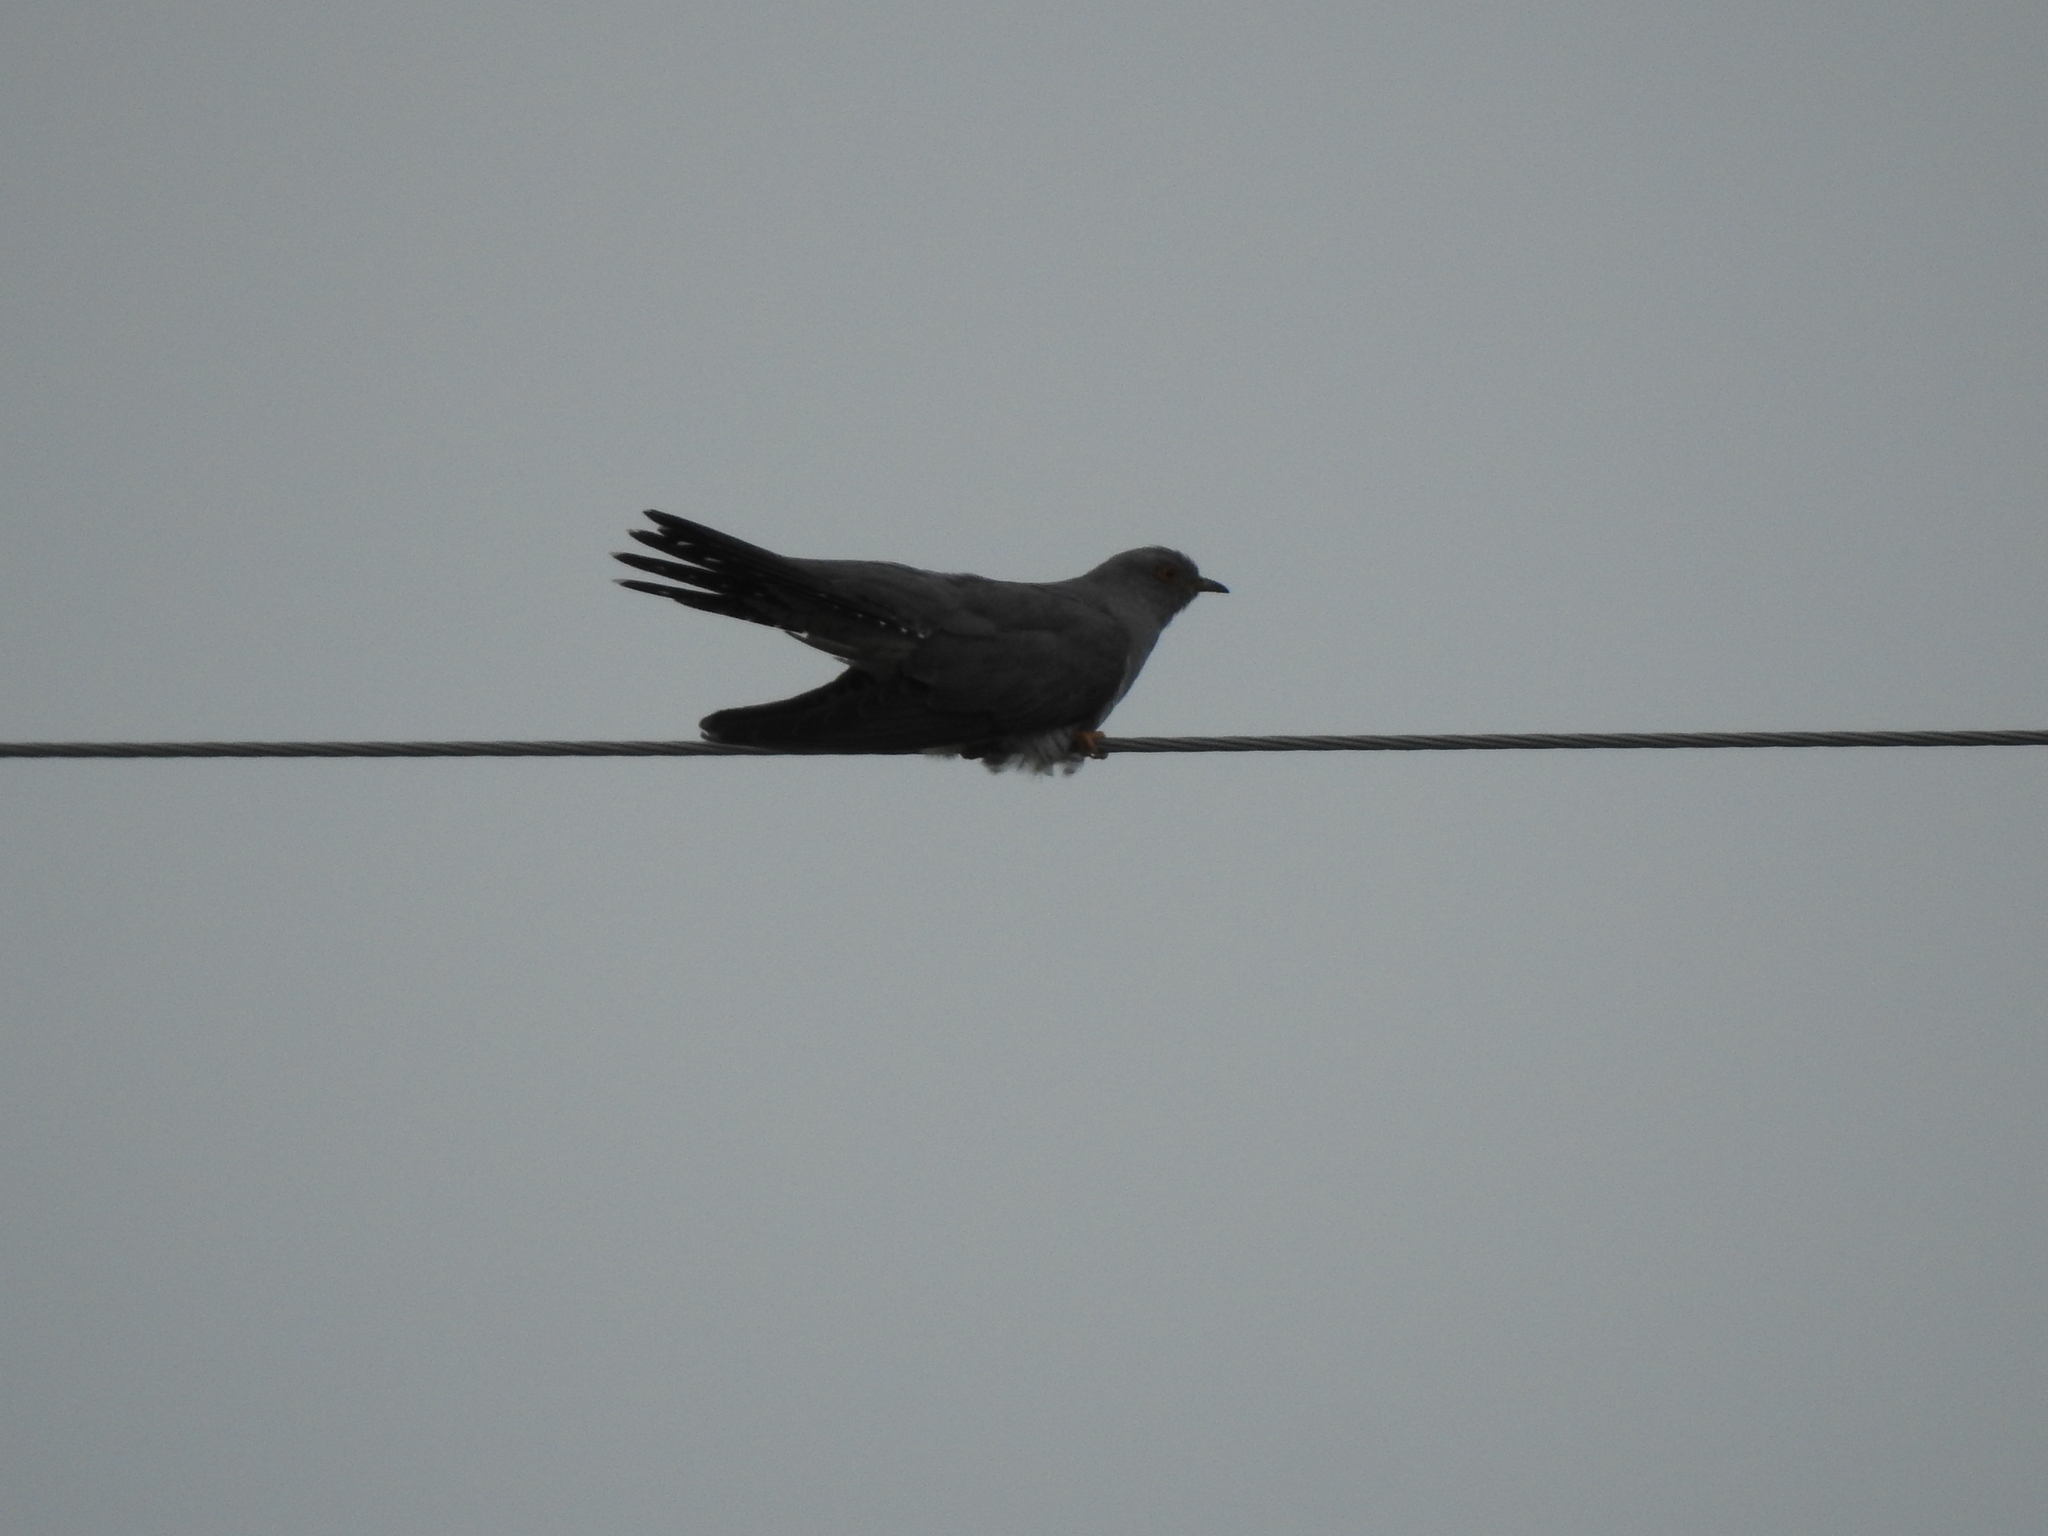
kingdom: Animalia
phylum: Chordata
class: Aves
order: Cuculiformes
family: Cuculidae
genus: Cuculus
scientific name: Cuculus canorus
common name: Common cuckoo
